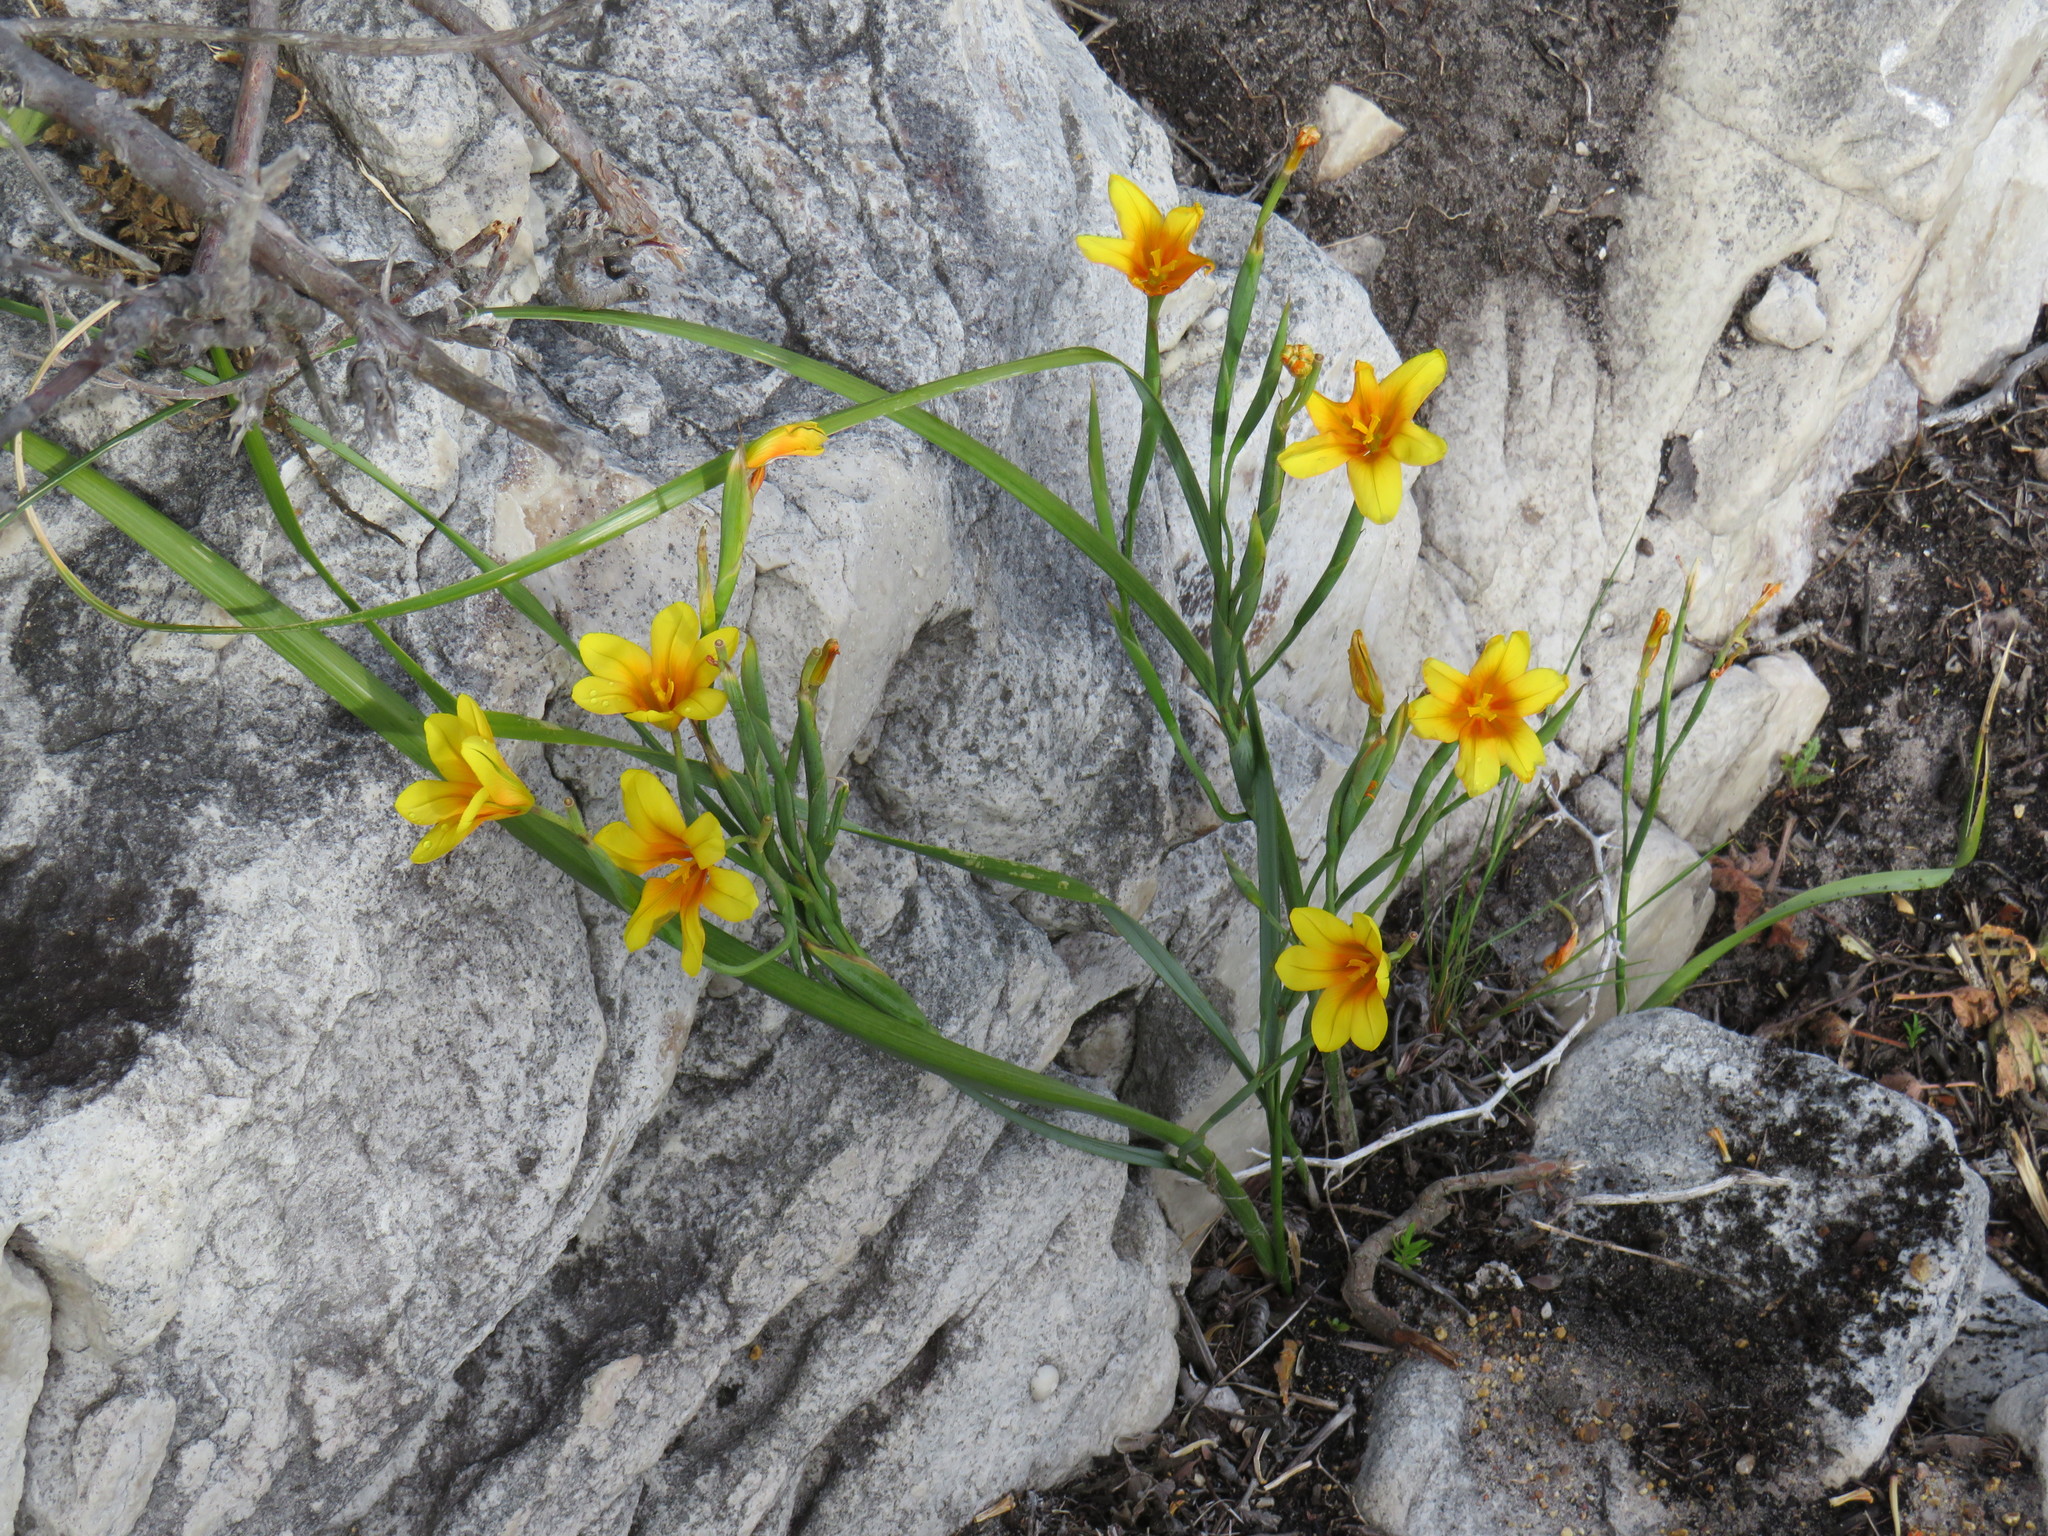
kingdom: Plantae
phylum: Tracheophyta
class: Liliopsida
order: Asparagales
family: Iridaceae
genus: Moraea
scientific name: Moraea ochroleuca
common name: Red tulp
